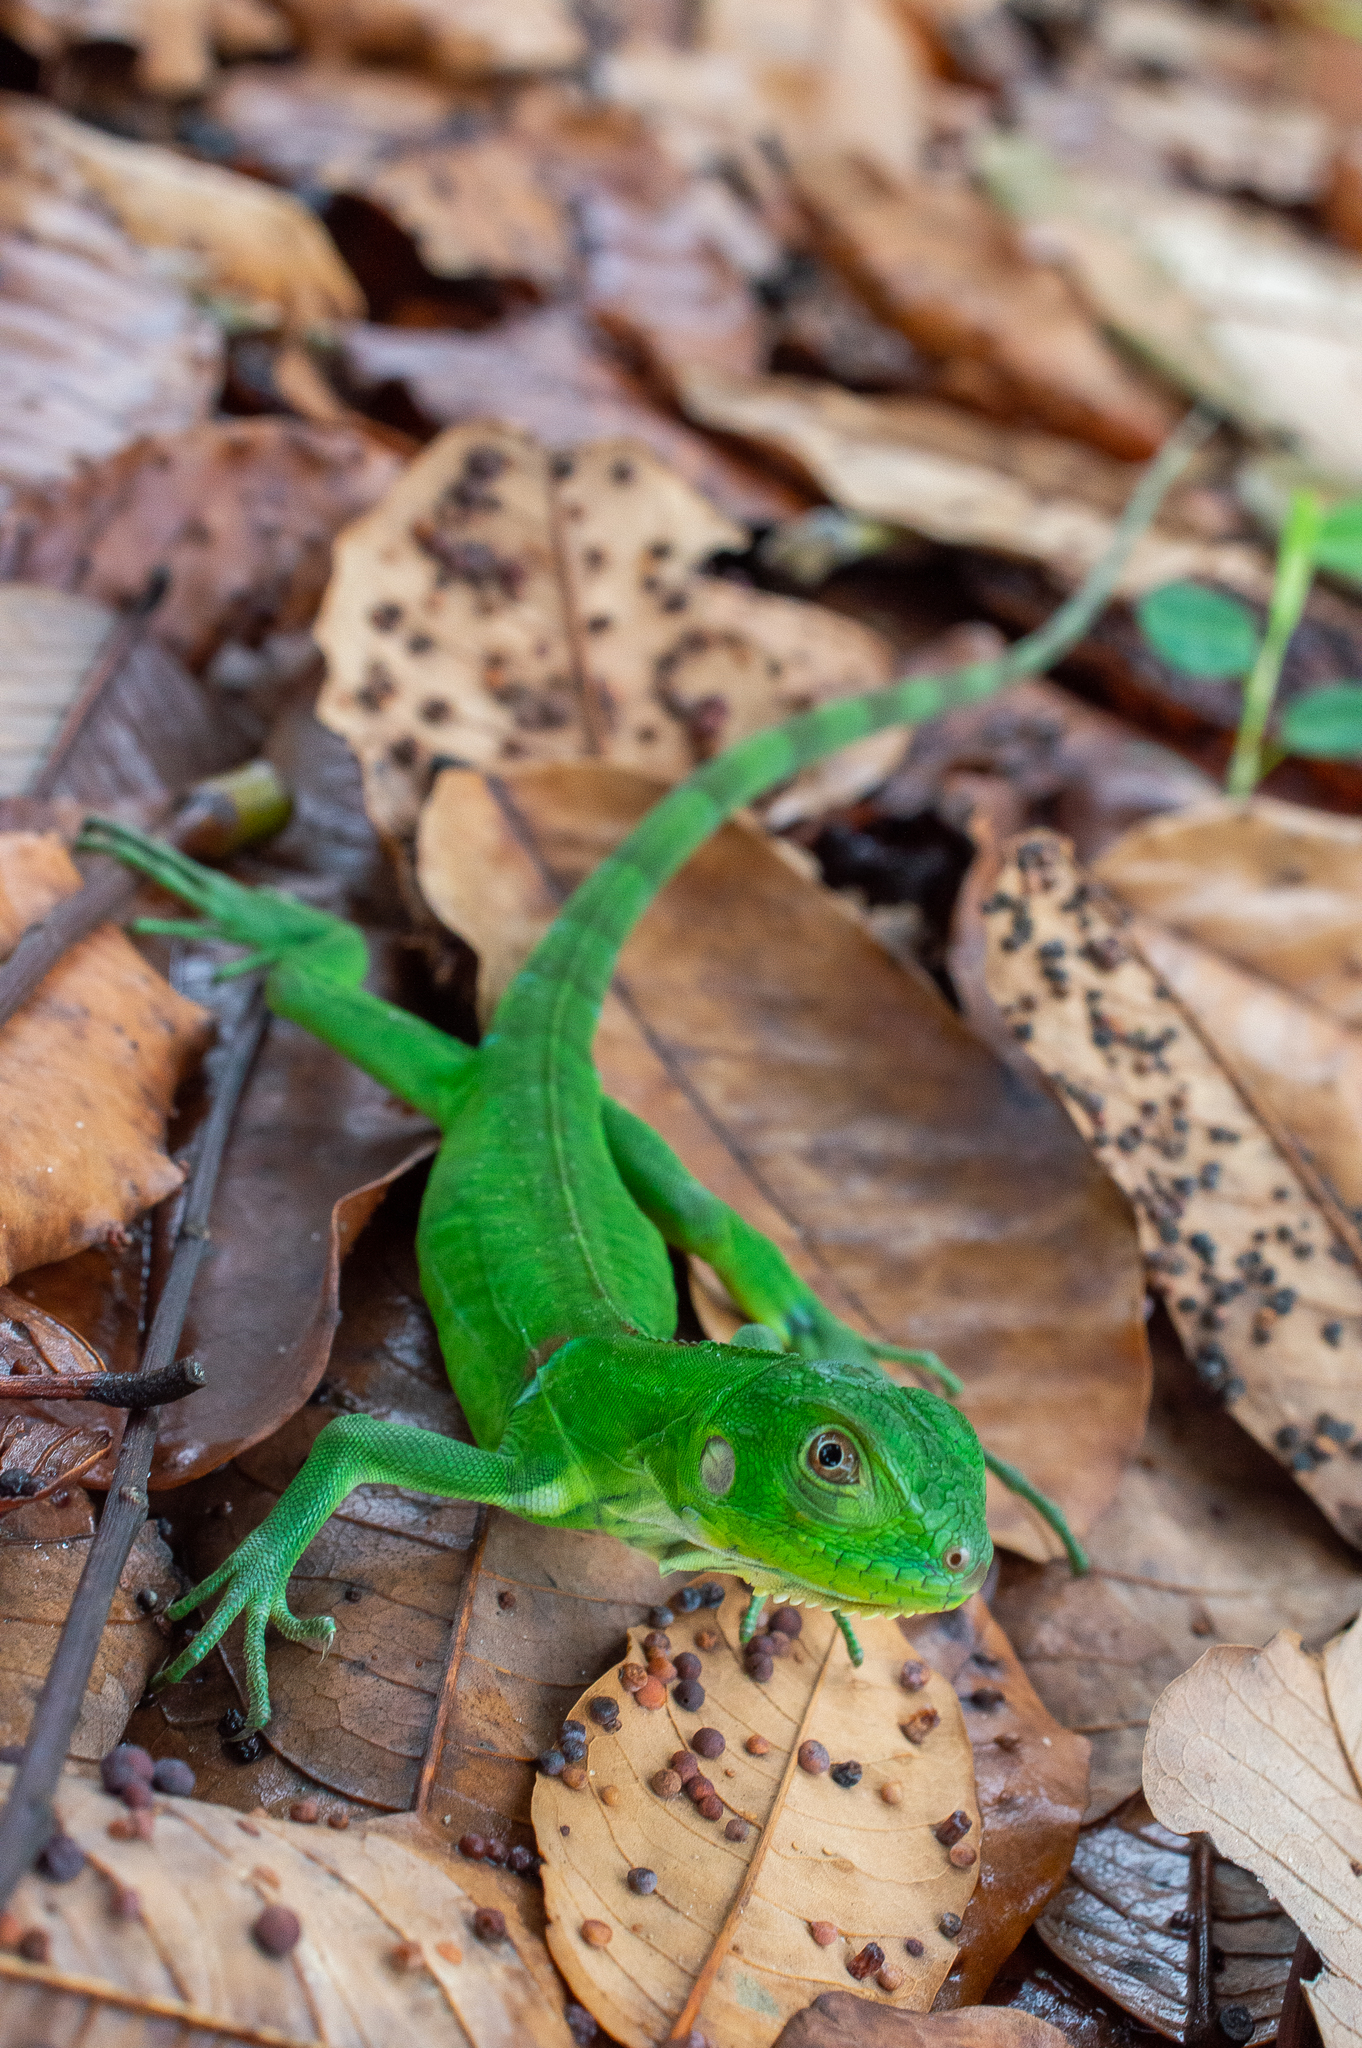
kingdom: Animalia
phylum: Chordata
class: Squamata
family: Iguanidae
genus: Iguana
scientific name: Iguana iguana
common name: Green iguana
